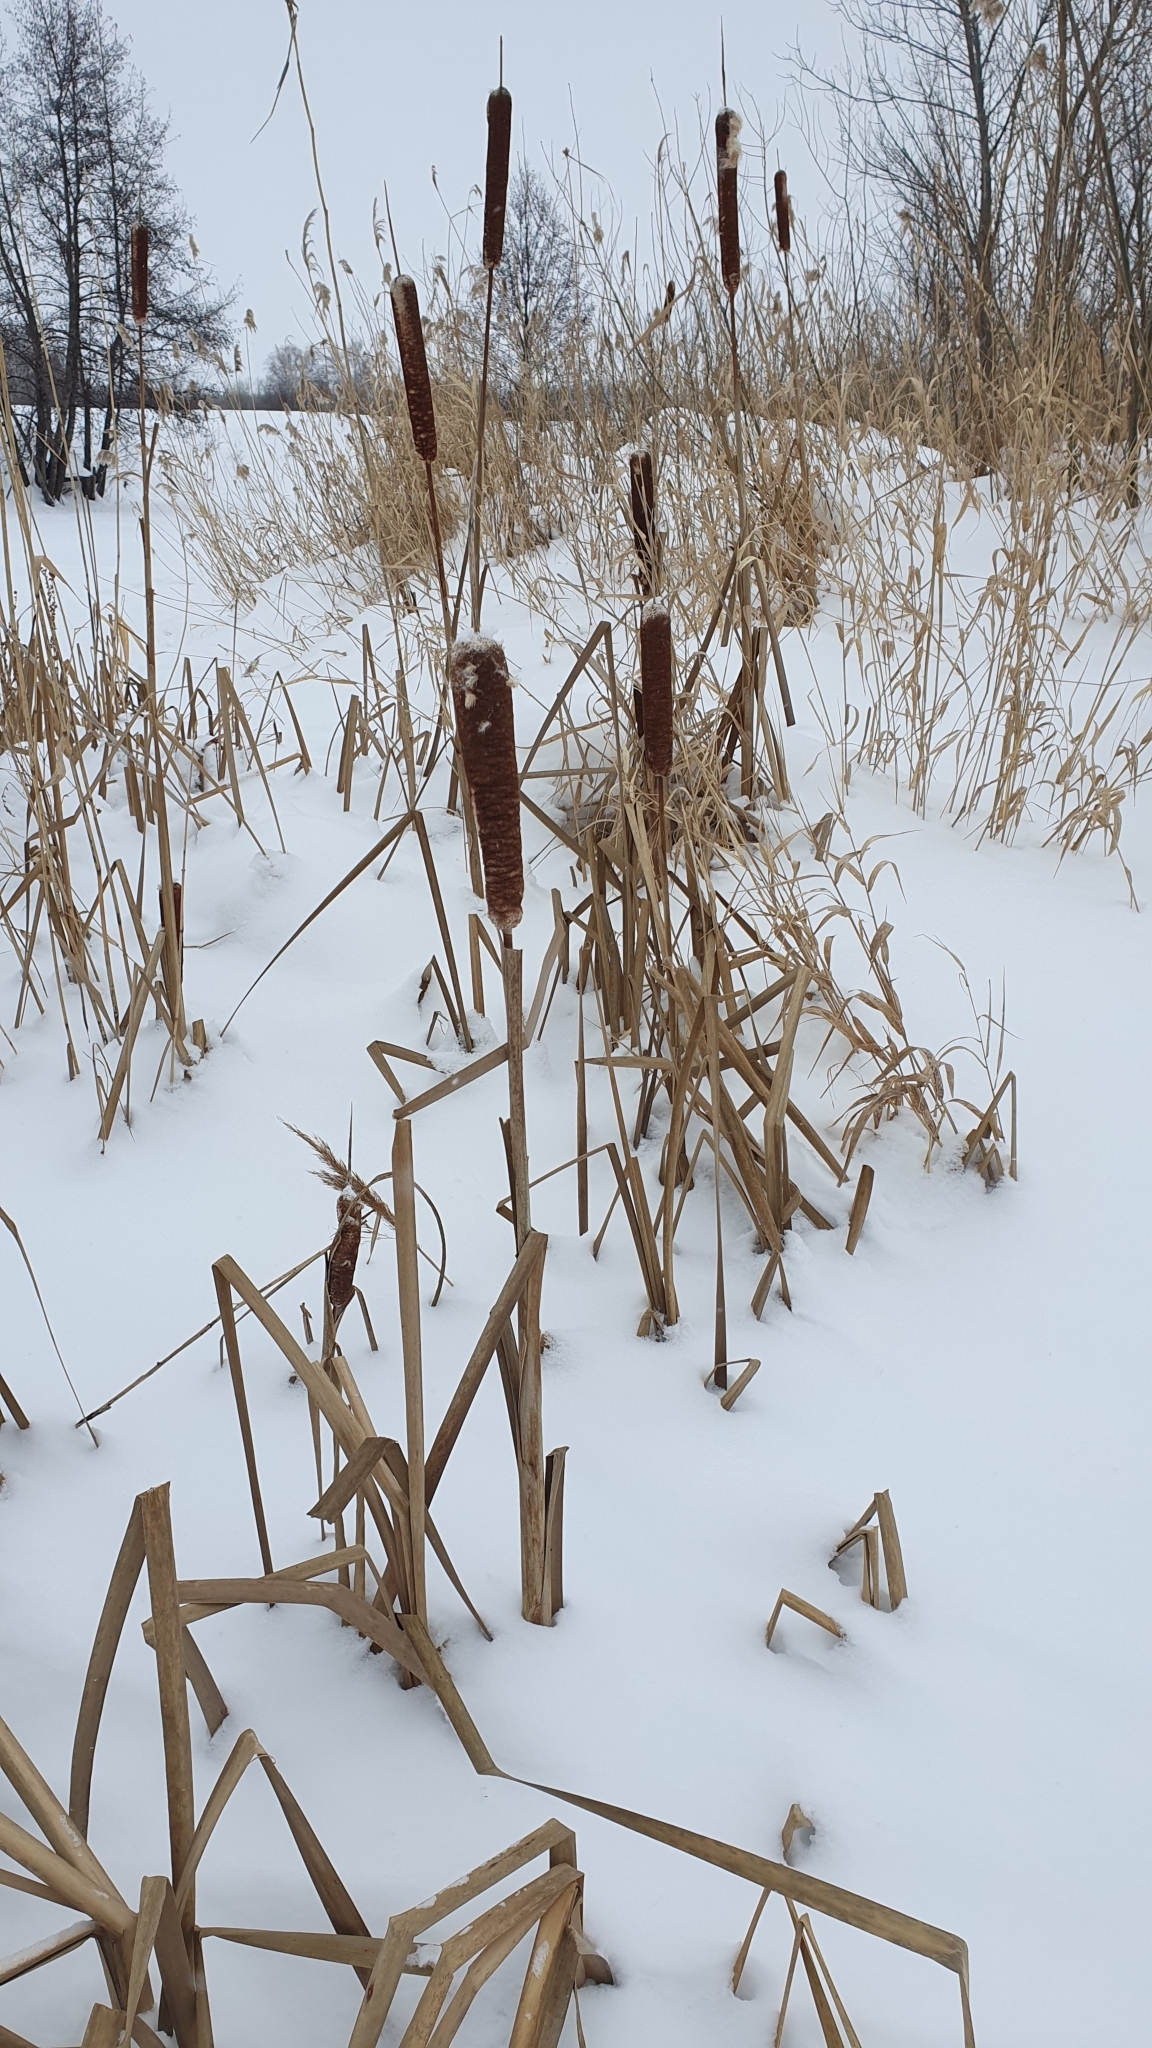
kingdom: Plantae
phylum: Tracheophyta
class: Liliopsida
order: Poales
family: Typhaceae
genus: Typha
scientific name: Typha latifolia
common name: Broadleaf cattail
